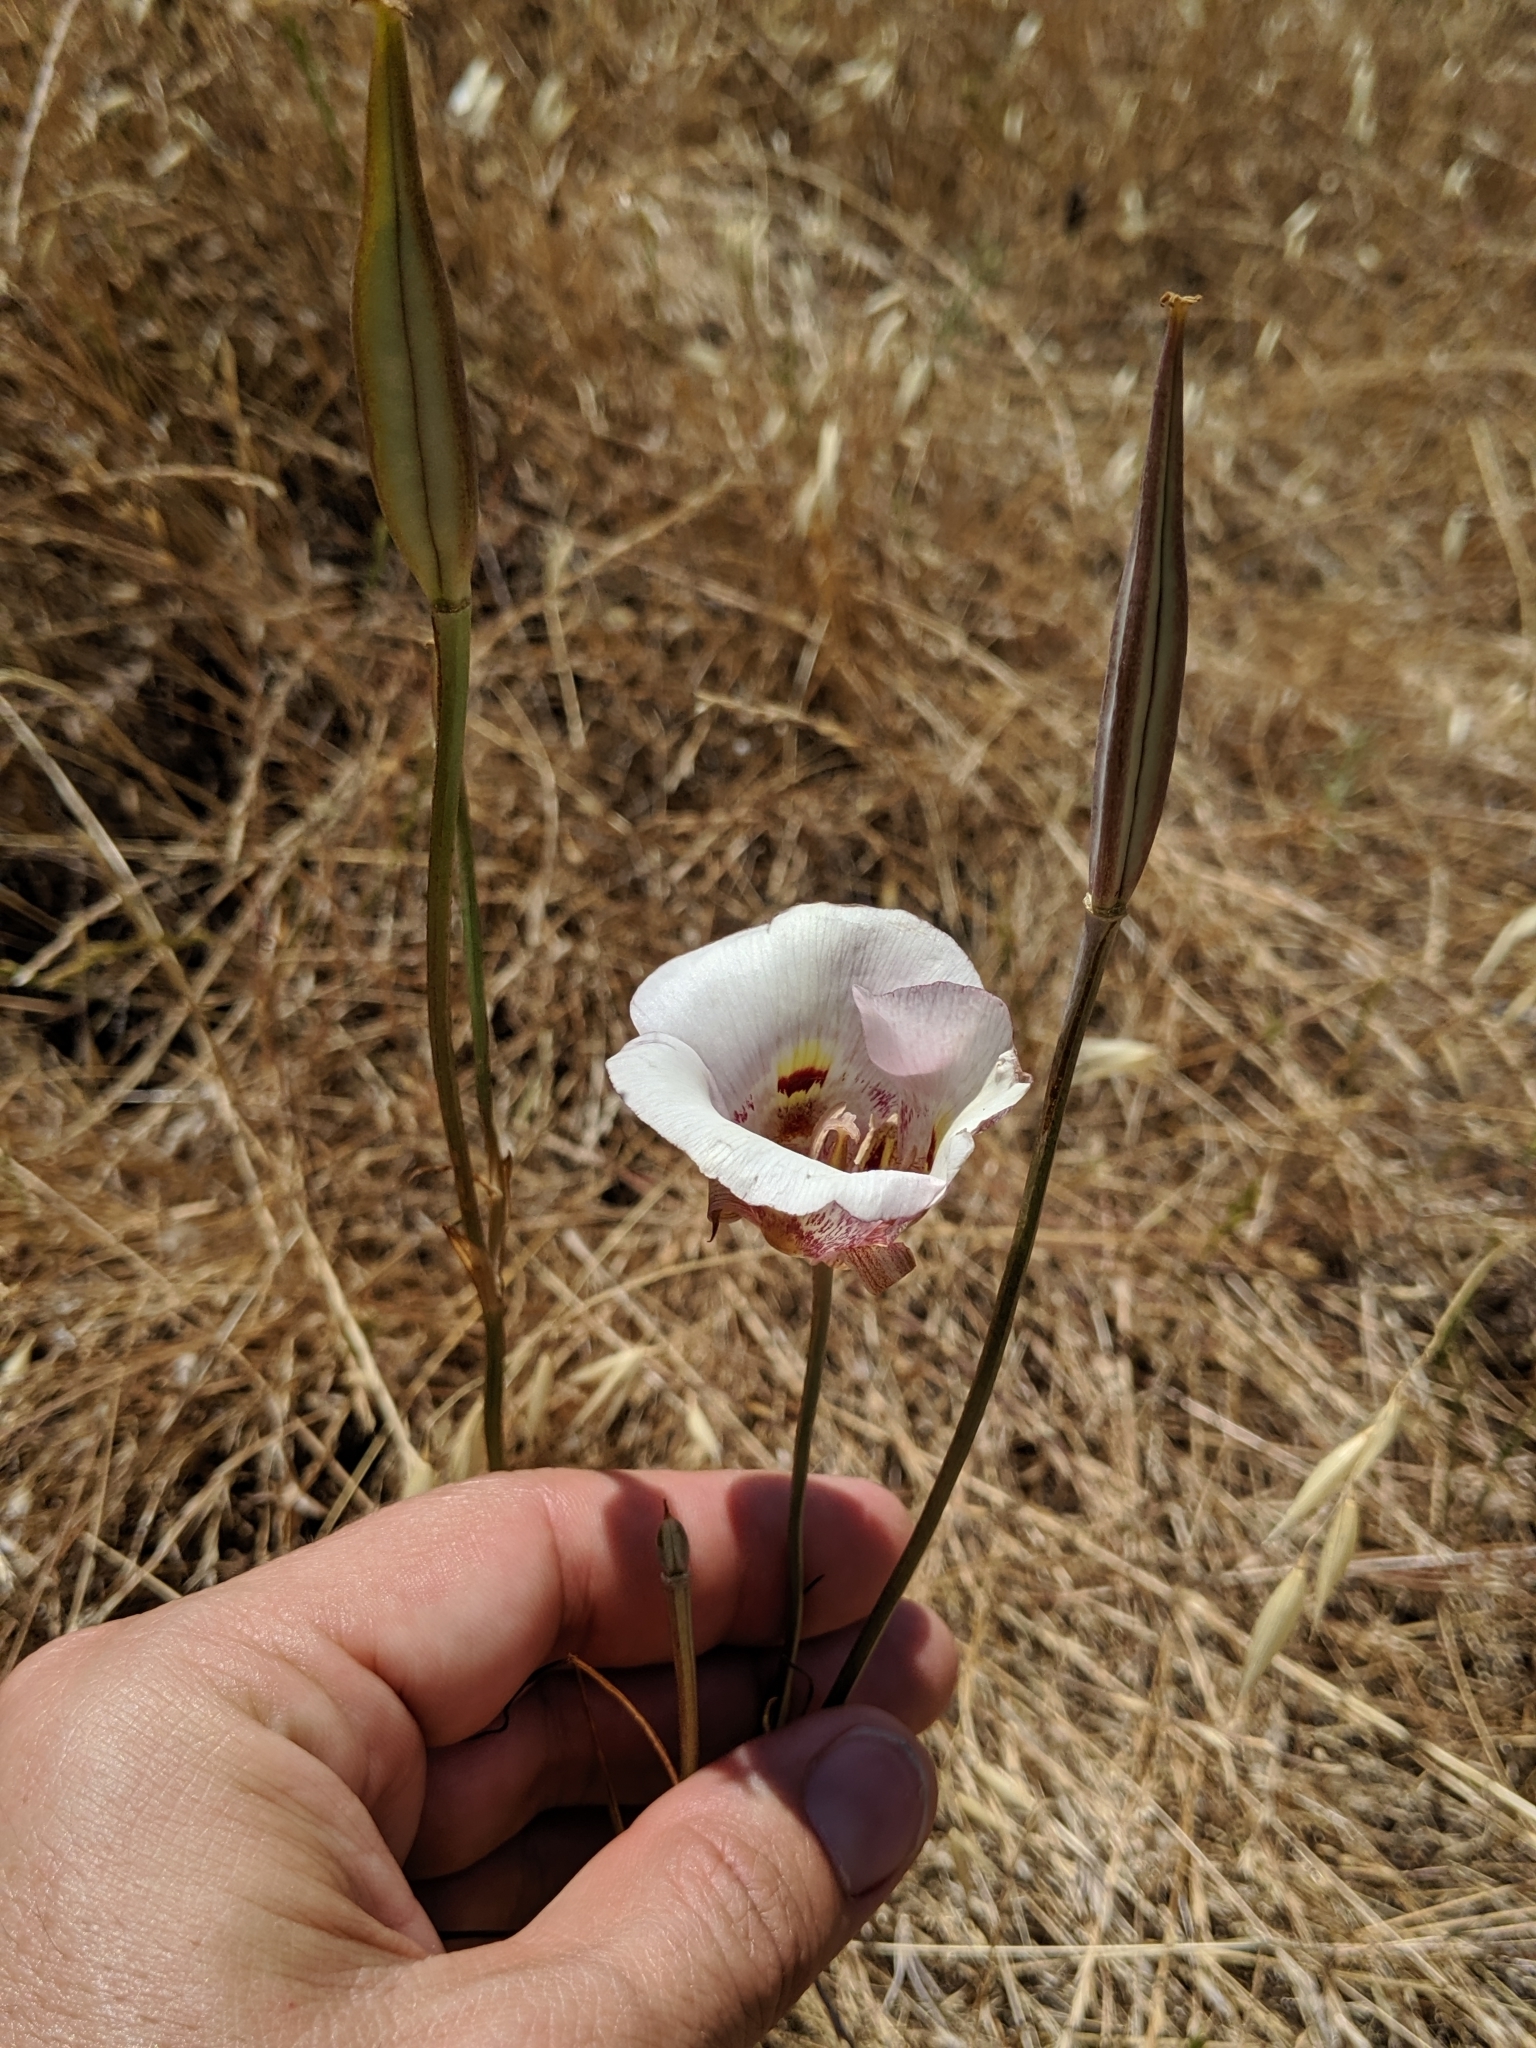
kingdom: Plantae
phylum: Tracheophyta
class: Liliopsida
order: Liliales
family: Liliaceae
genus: Calochortus
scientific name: Calochortus argillosus
